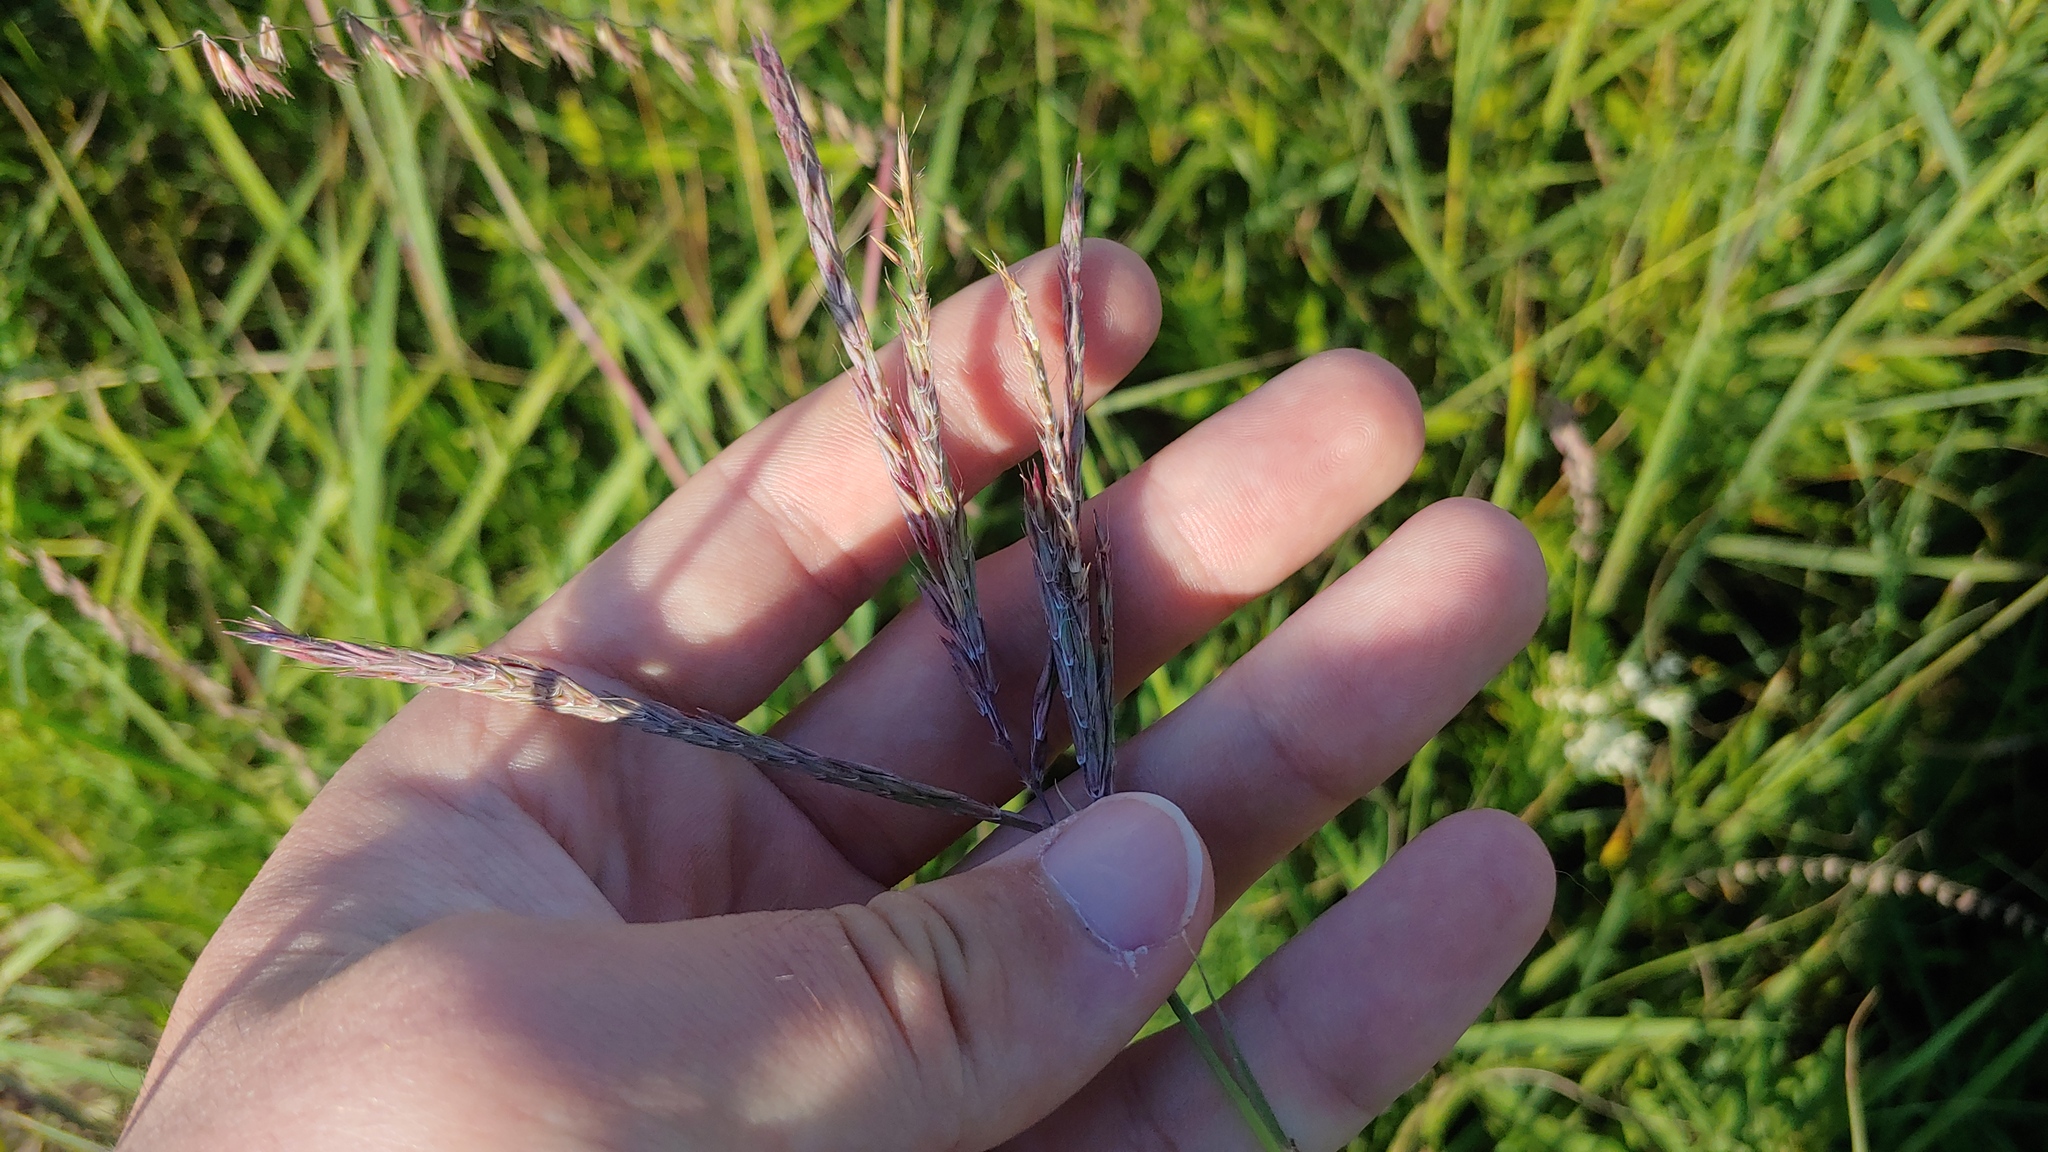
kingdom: Plantae
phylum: Tracheophyta
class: Liliopsida
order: Poales
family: Poaceae
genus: Andropogon
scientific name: Andropogon gerardi
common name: Big bluestem
